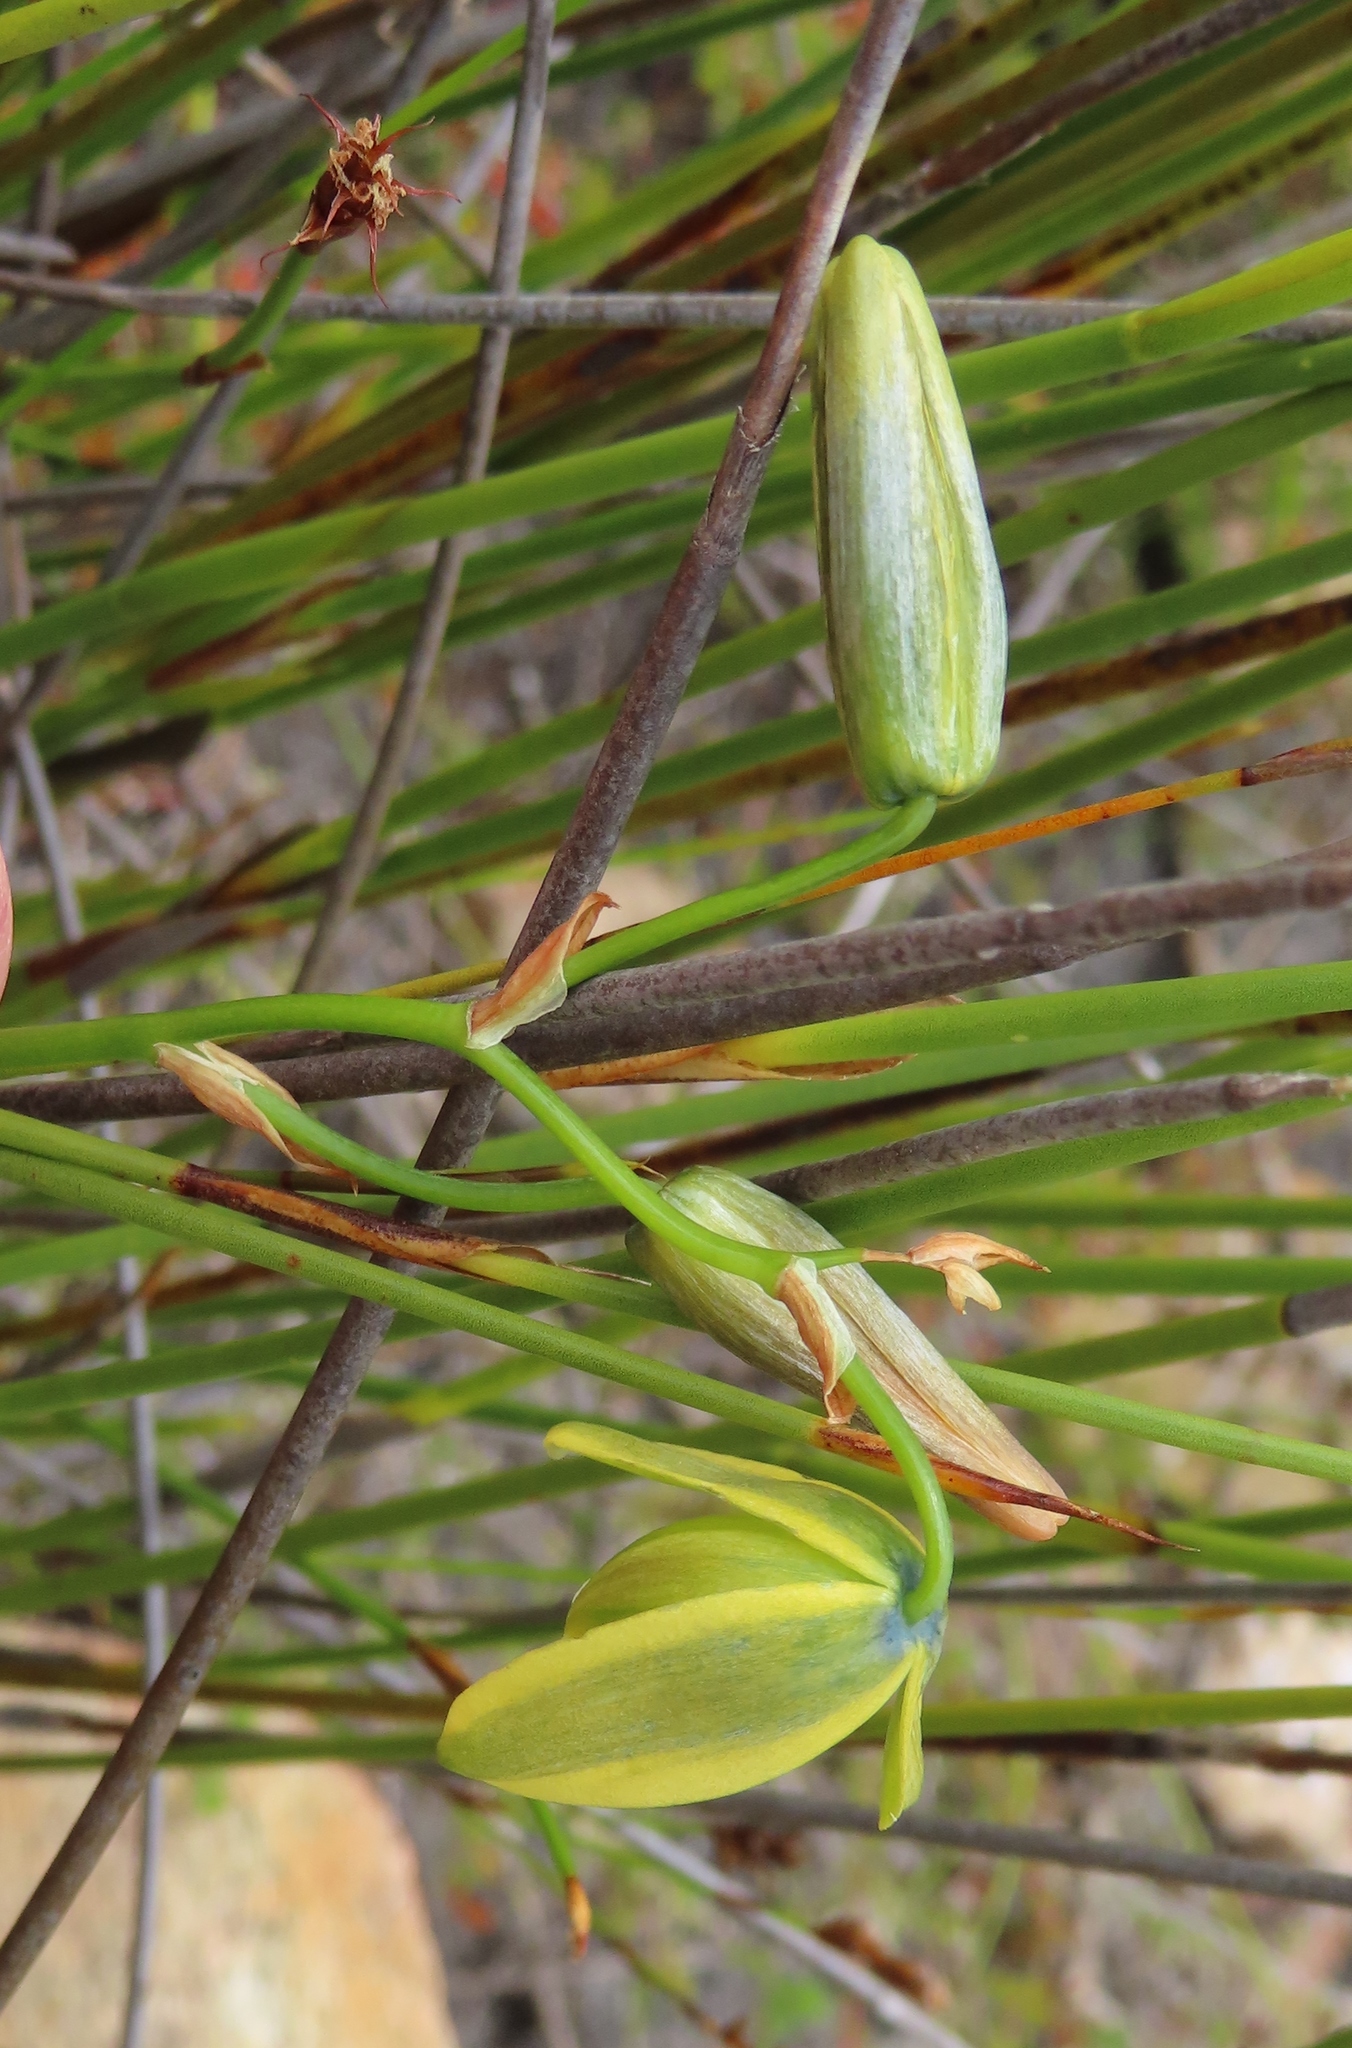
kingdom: Plantae
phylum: Tracheophyta
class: Liliopsida
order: Asparagales
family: Asparagaceae
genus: Albuca
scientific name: Albuca cooperi
